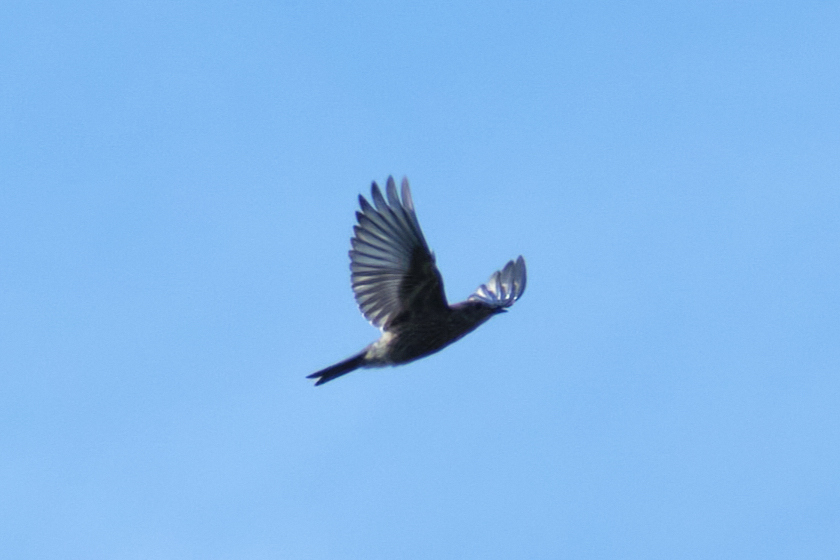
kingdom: Animalia
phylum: Chordata
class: Aves
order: Passeriformes
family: Turdidae
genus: Sialia
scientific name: Sialia mexicana
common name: Western bluebird
